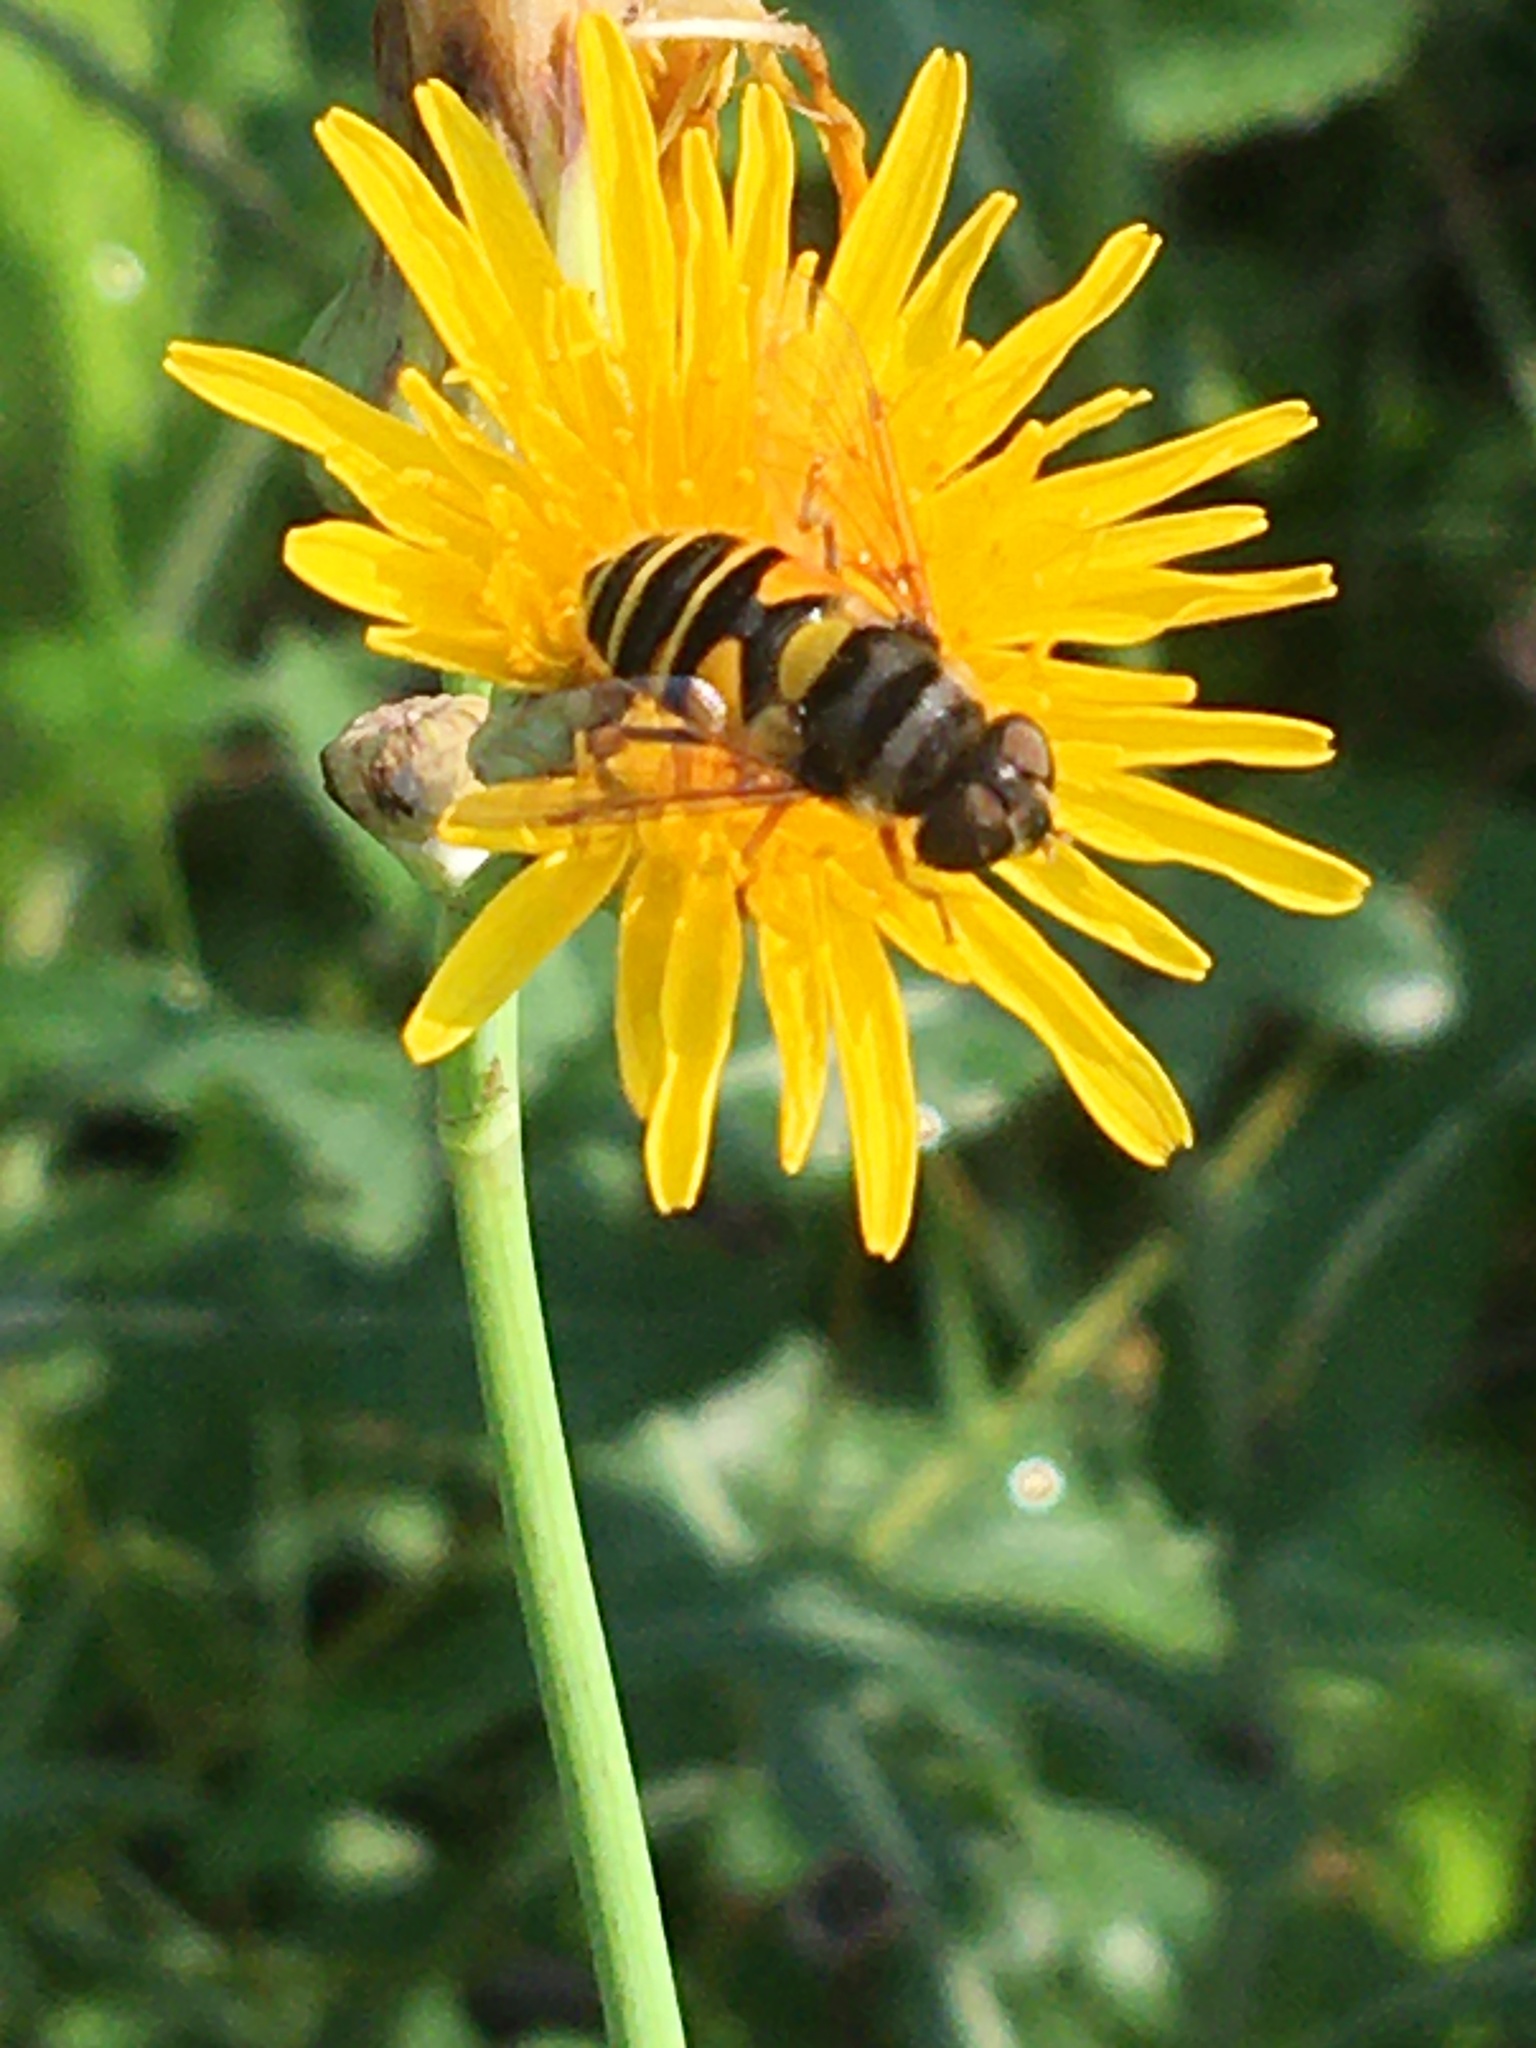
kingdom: Animalia
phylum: Arthropoda
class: Insecta
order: Diptera
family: Syrphidae
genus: Eristalis
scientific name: Eristalis transversa
